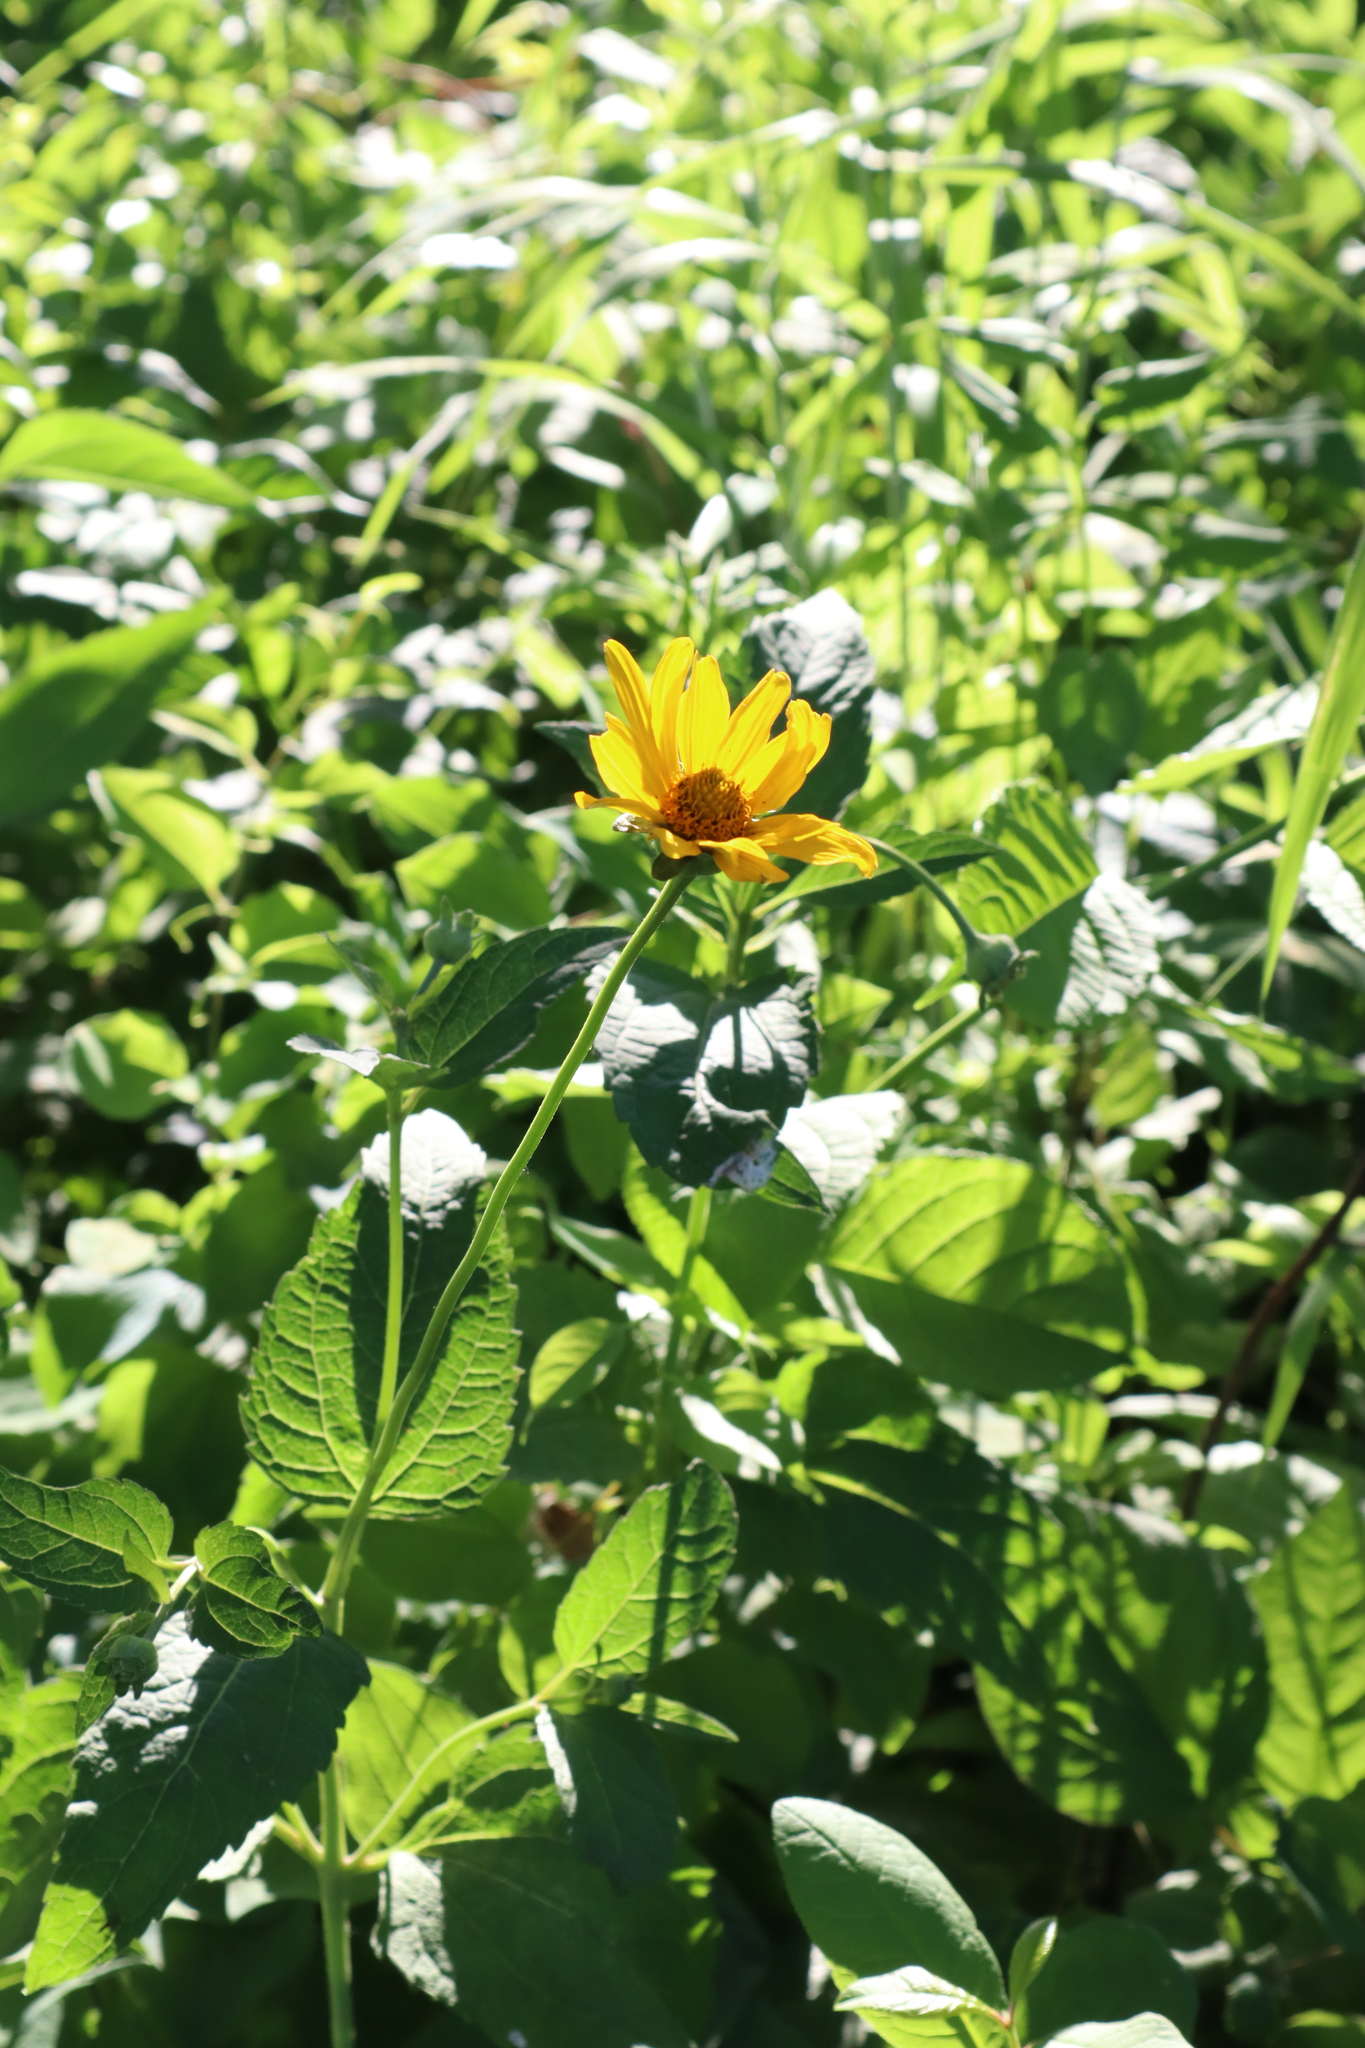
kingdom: Plantae
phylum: Tracheophyta
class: Magnoliopsida
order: Asterales
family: Asteraceae
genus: Heliopsis
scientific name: Heliopsis helianthoides
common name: False sunflower
